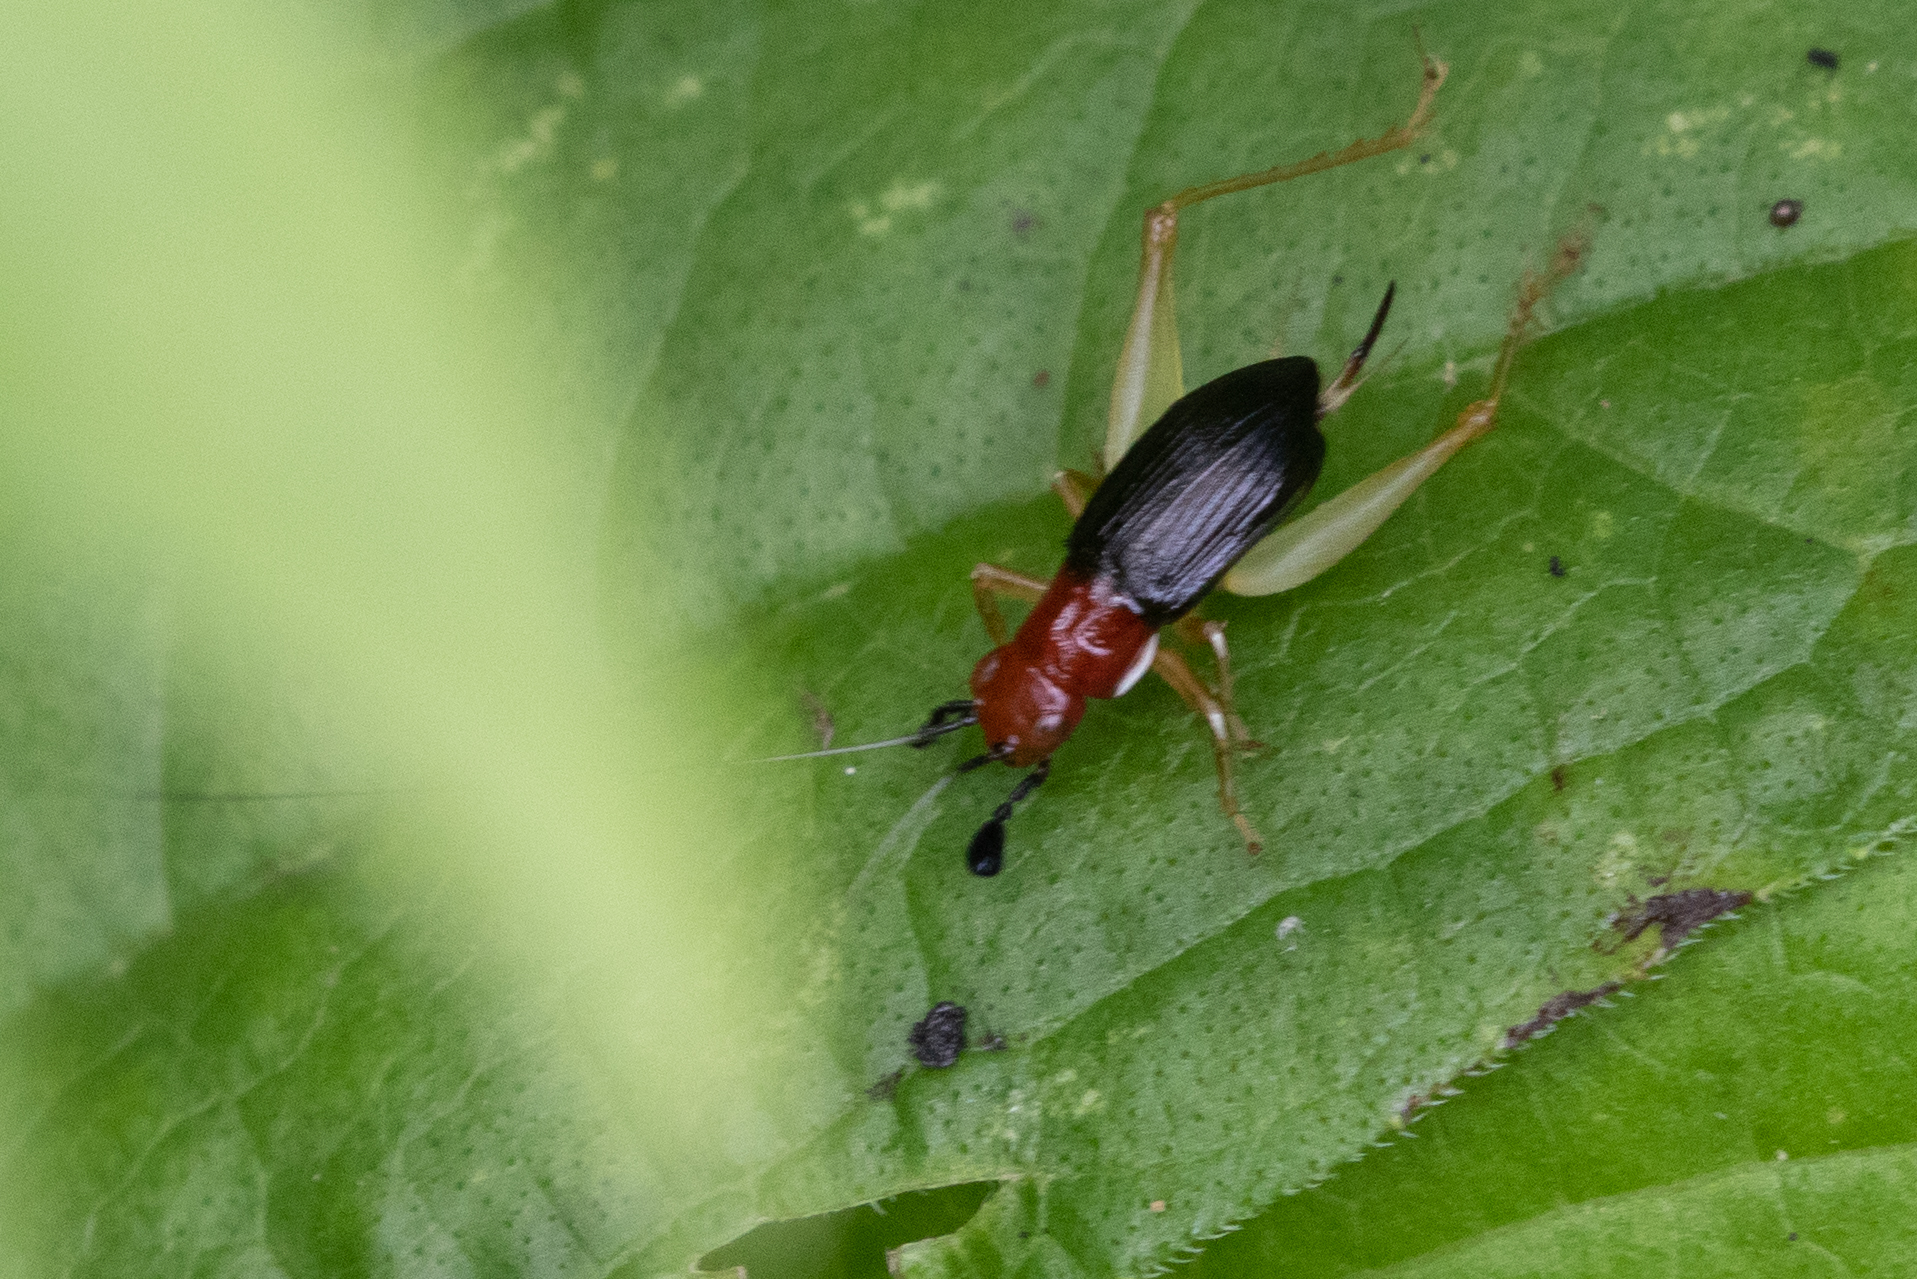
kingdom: Animalia
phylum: Arthropoda
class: Insecta
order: Orthoptera
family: Trigonidiidae
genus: Phyllopalpus
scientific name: Phyllopalpus pulchellus
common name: Handsome trig
